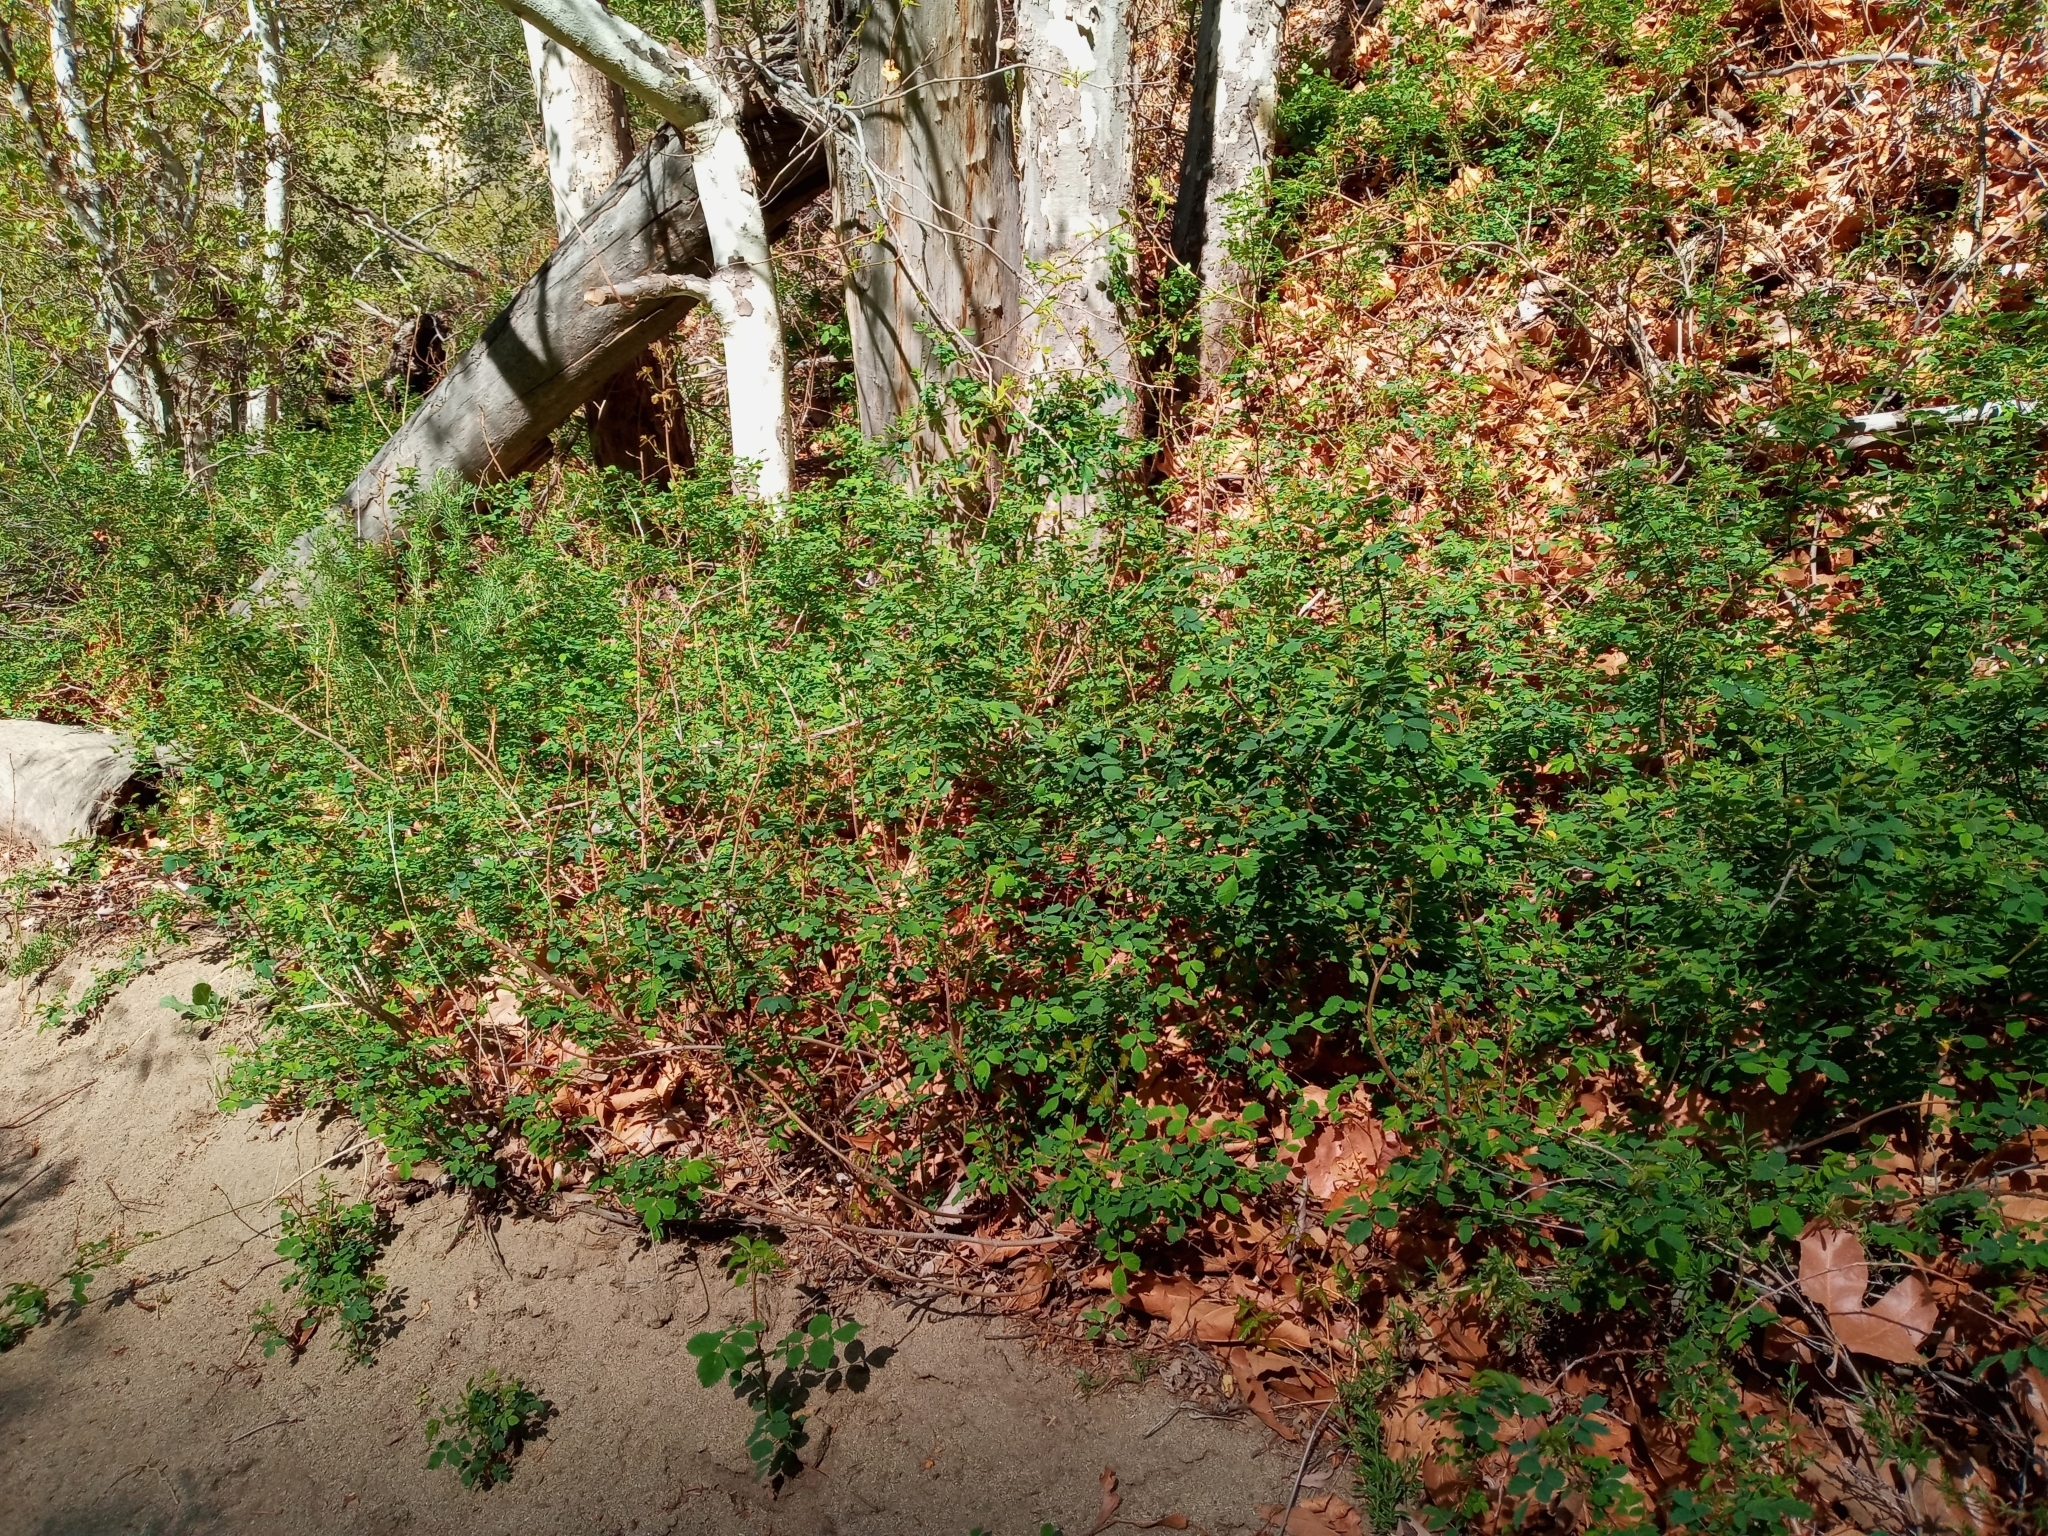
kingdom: Plantae
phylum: Tracheophyta
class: Magnoliopsida
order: Rosales
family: Rosaceae
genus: Rosa
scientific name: Rosa californica
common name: California rose
